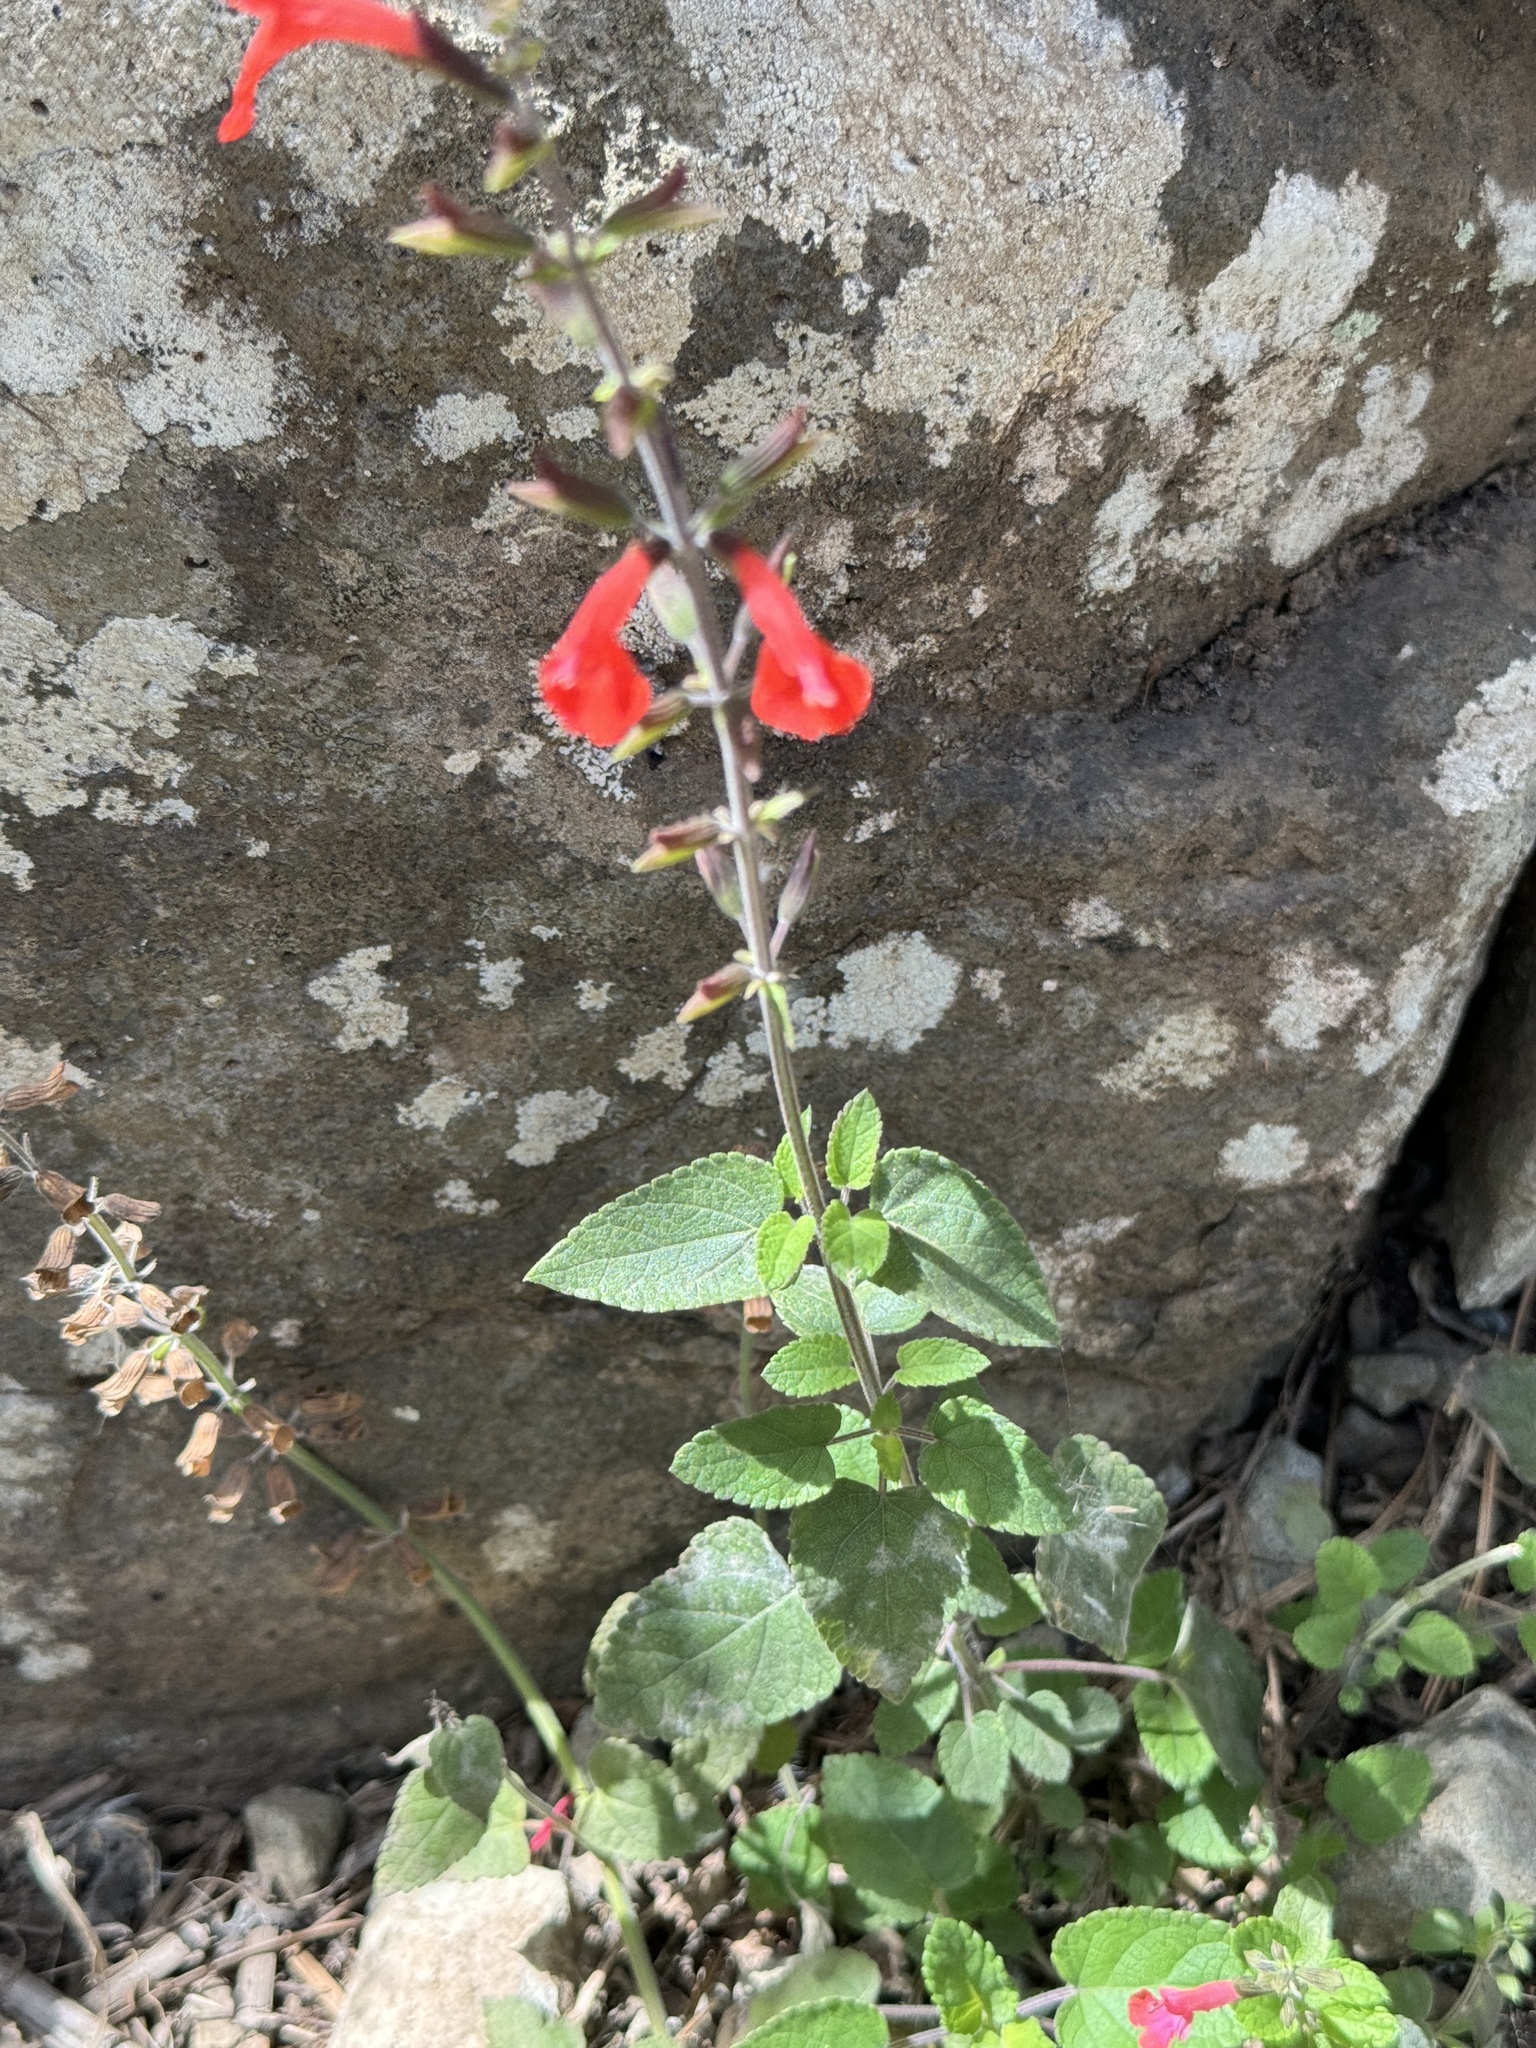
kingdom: Plantae
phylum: Tracheophyta
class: Magnoliopsida
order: Lamiales
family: Lamiaceae
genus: Salvia
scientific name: Salvia coccinea
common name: Blood sage
